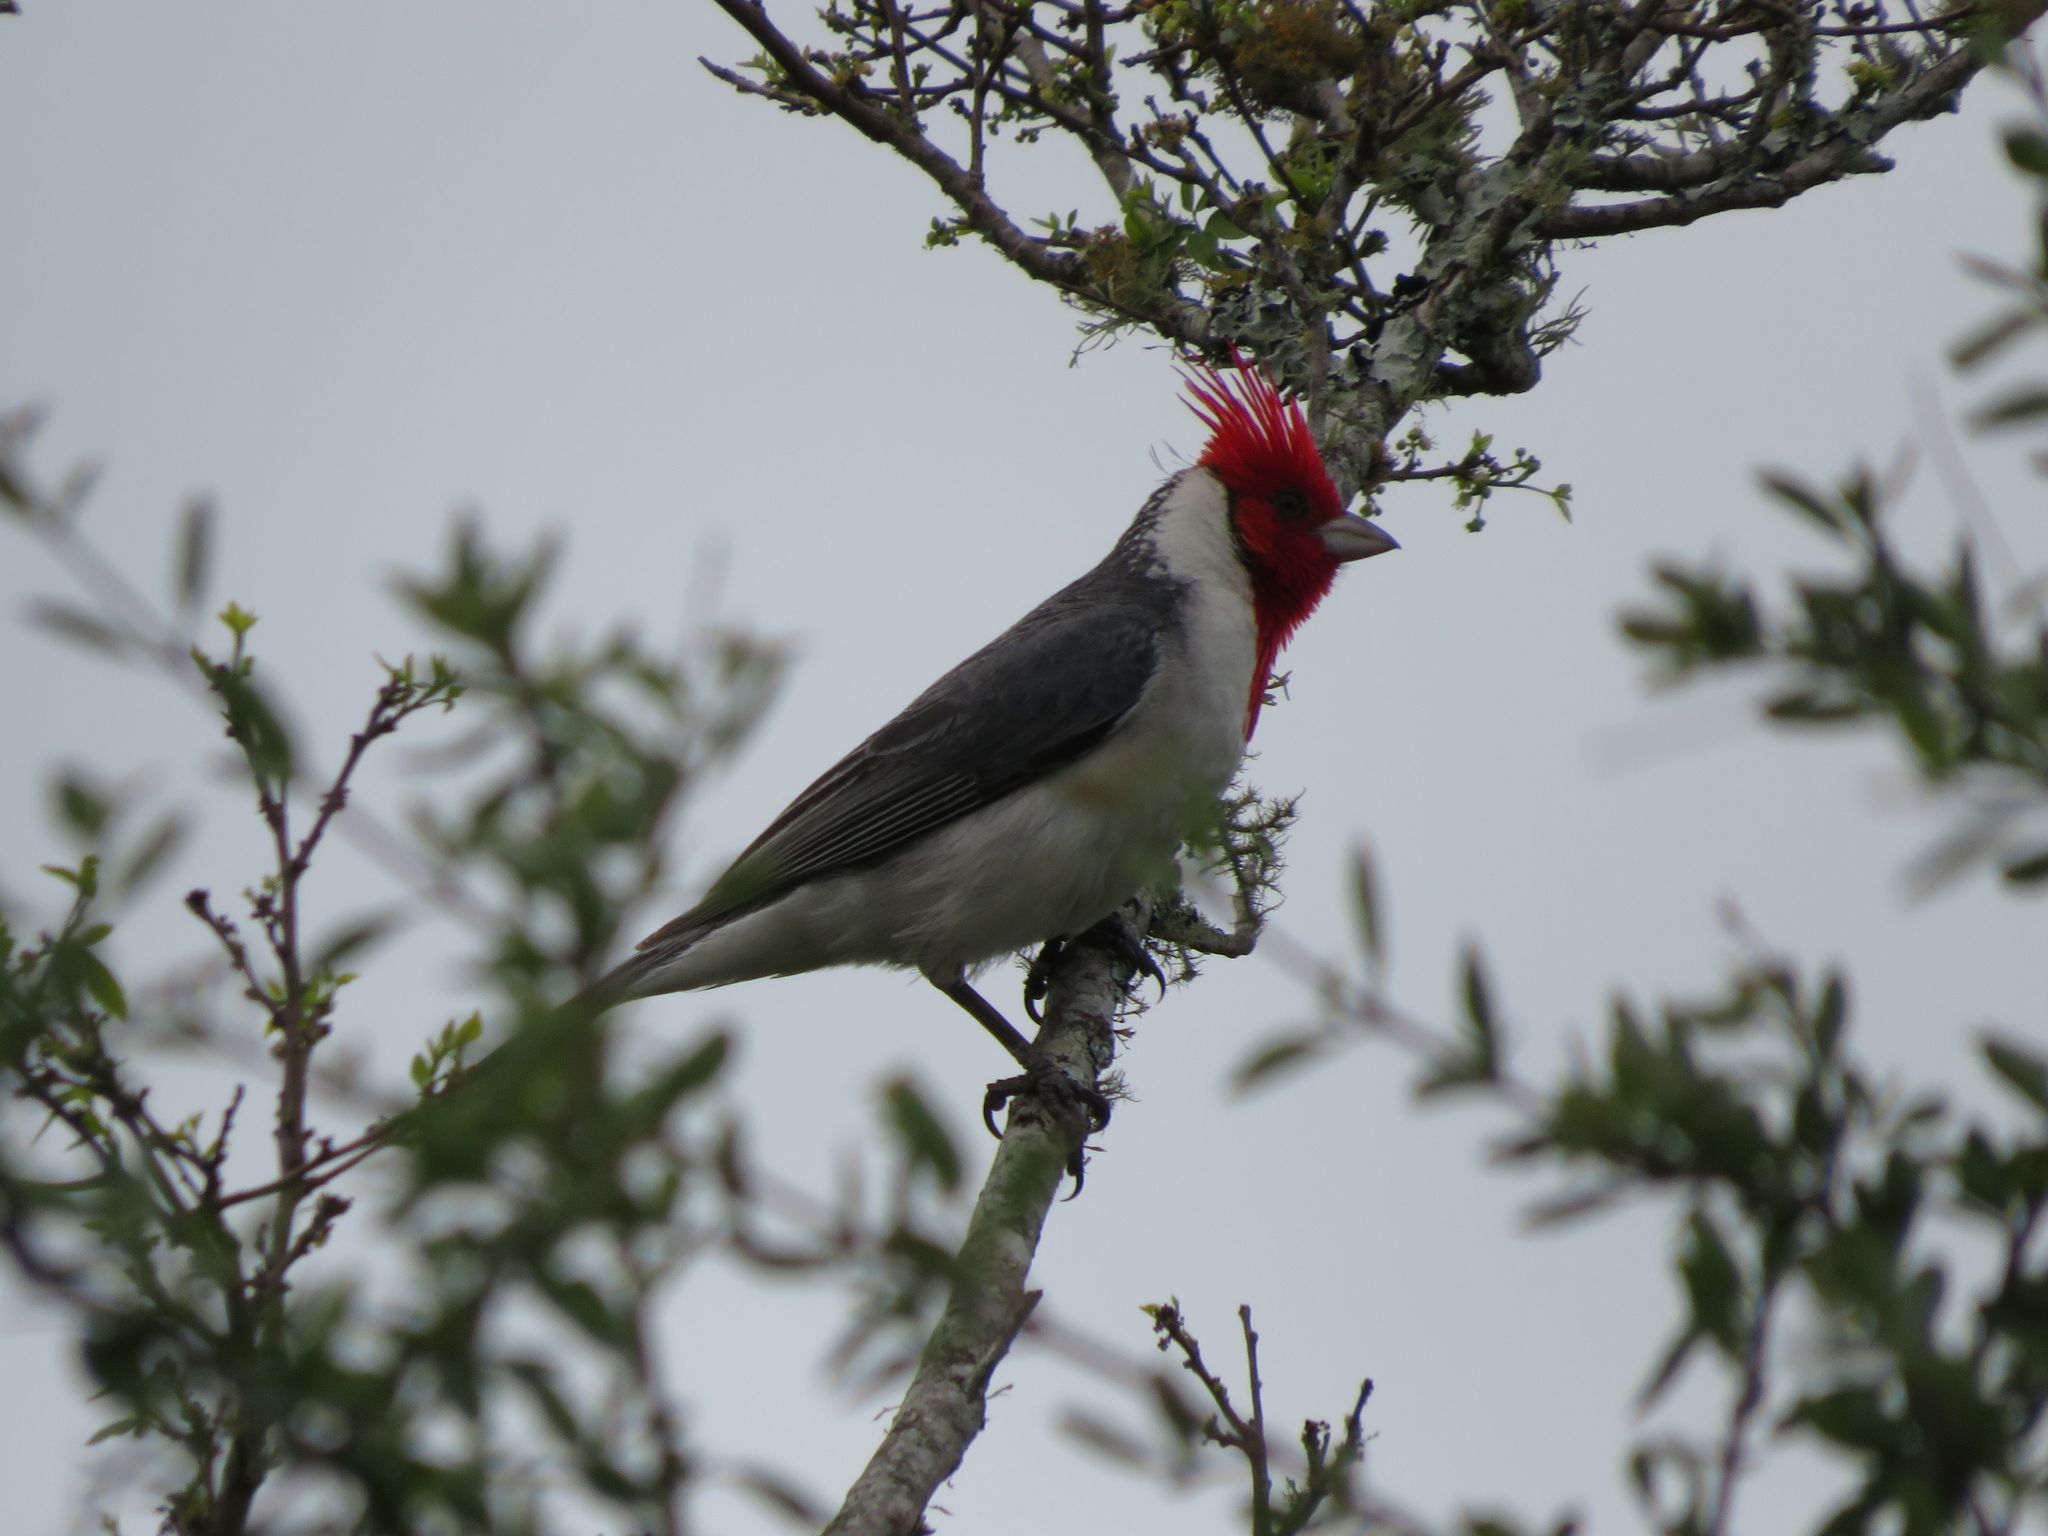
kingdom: Animalia
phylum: Chordata
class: Aves
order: Passeriformes
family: Thraupidae
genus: Paroaria
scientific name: Paroaria coronata
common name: Red-crested cardinal
